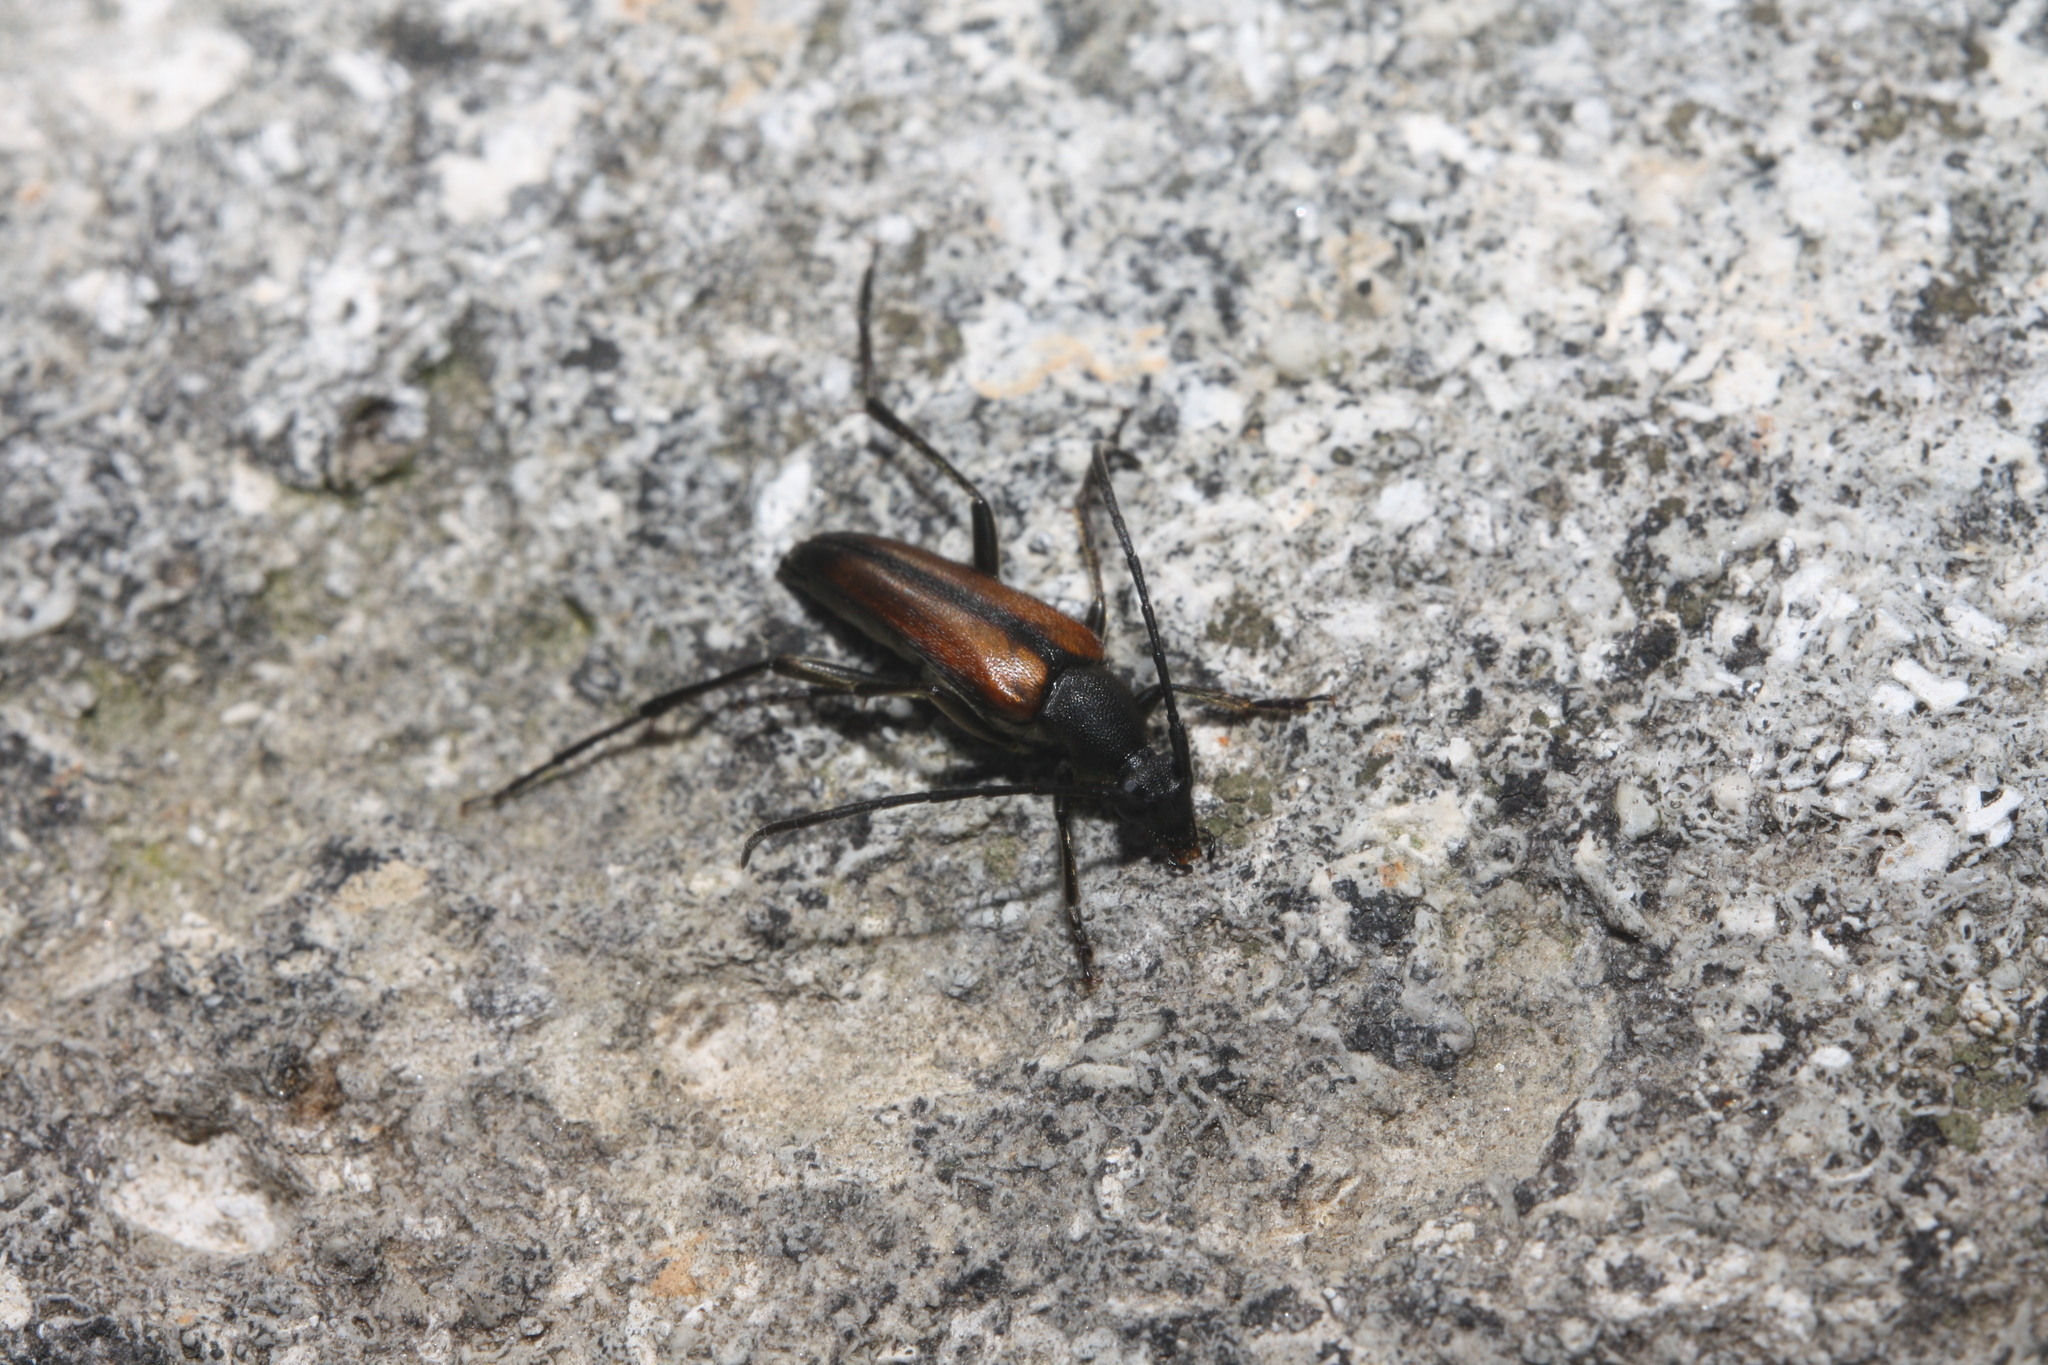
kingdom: Animalia
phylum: Arthropoda
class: Insecta
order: Coleoptera
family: Cerambycidae
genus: Stenurella
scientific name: Stenurella melanura
